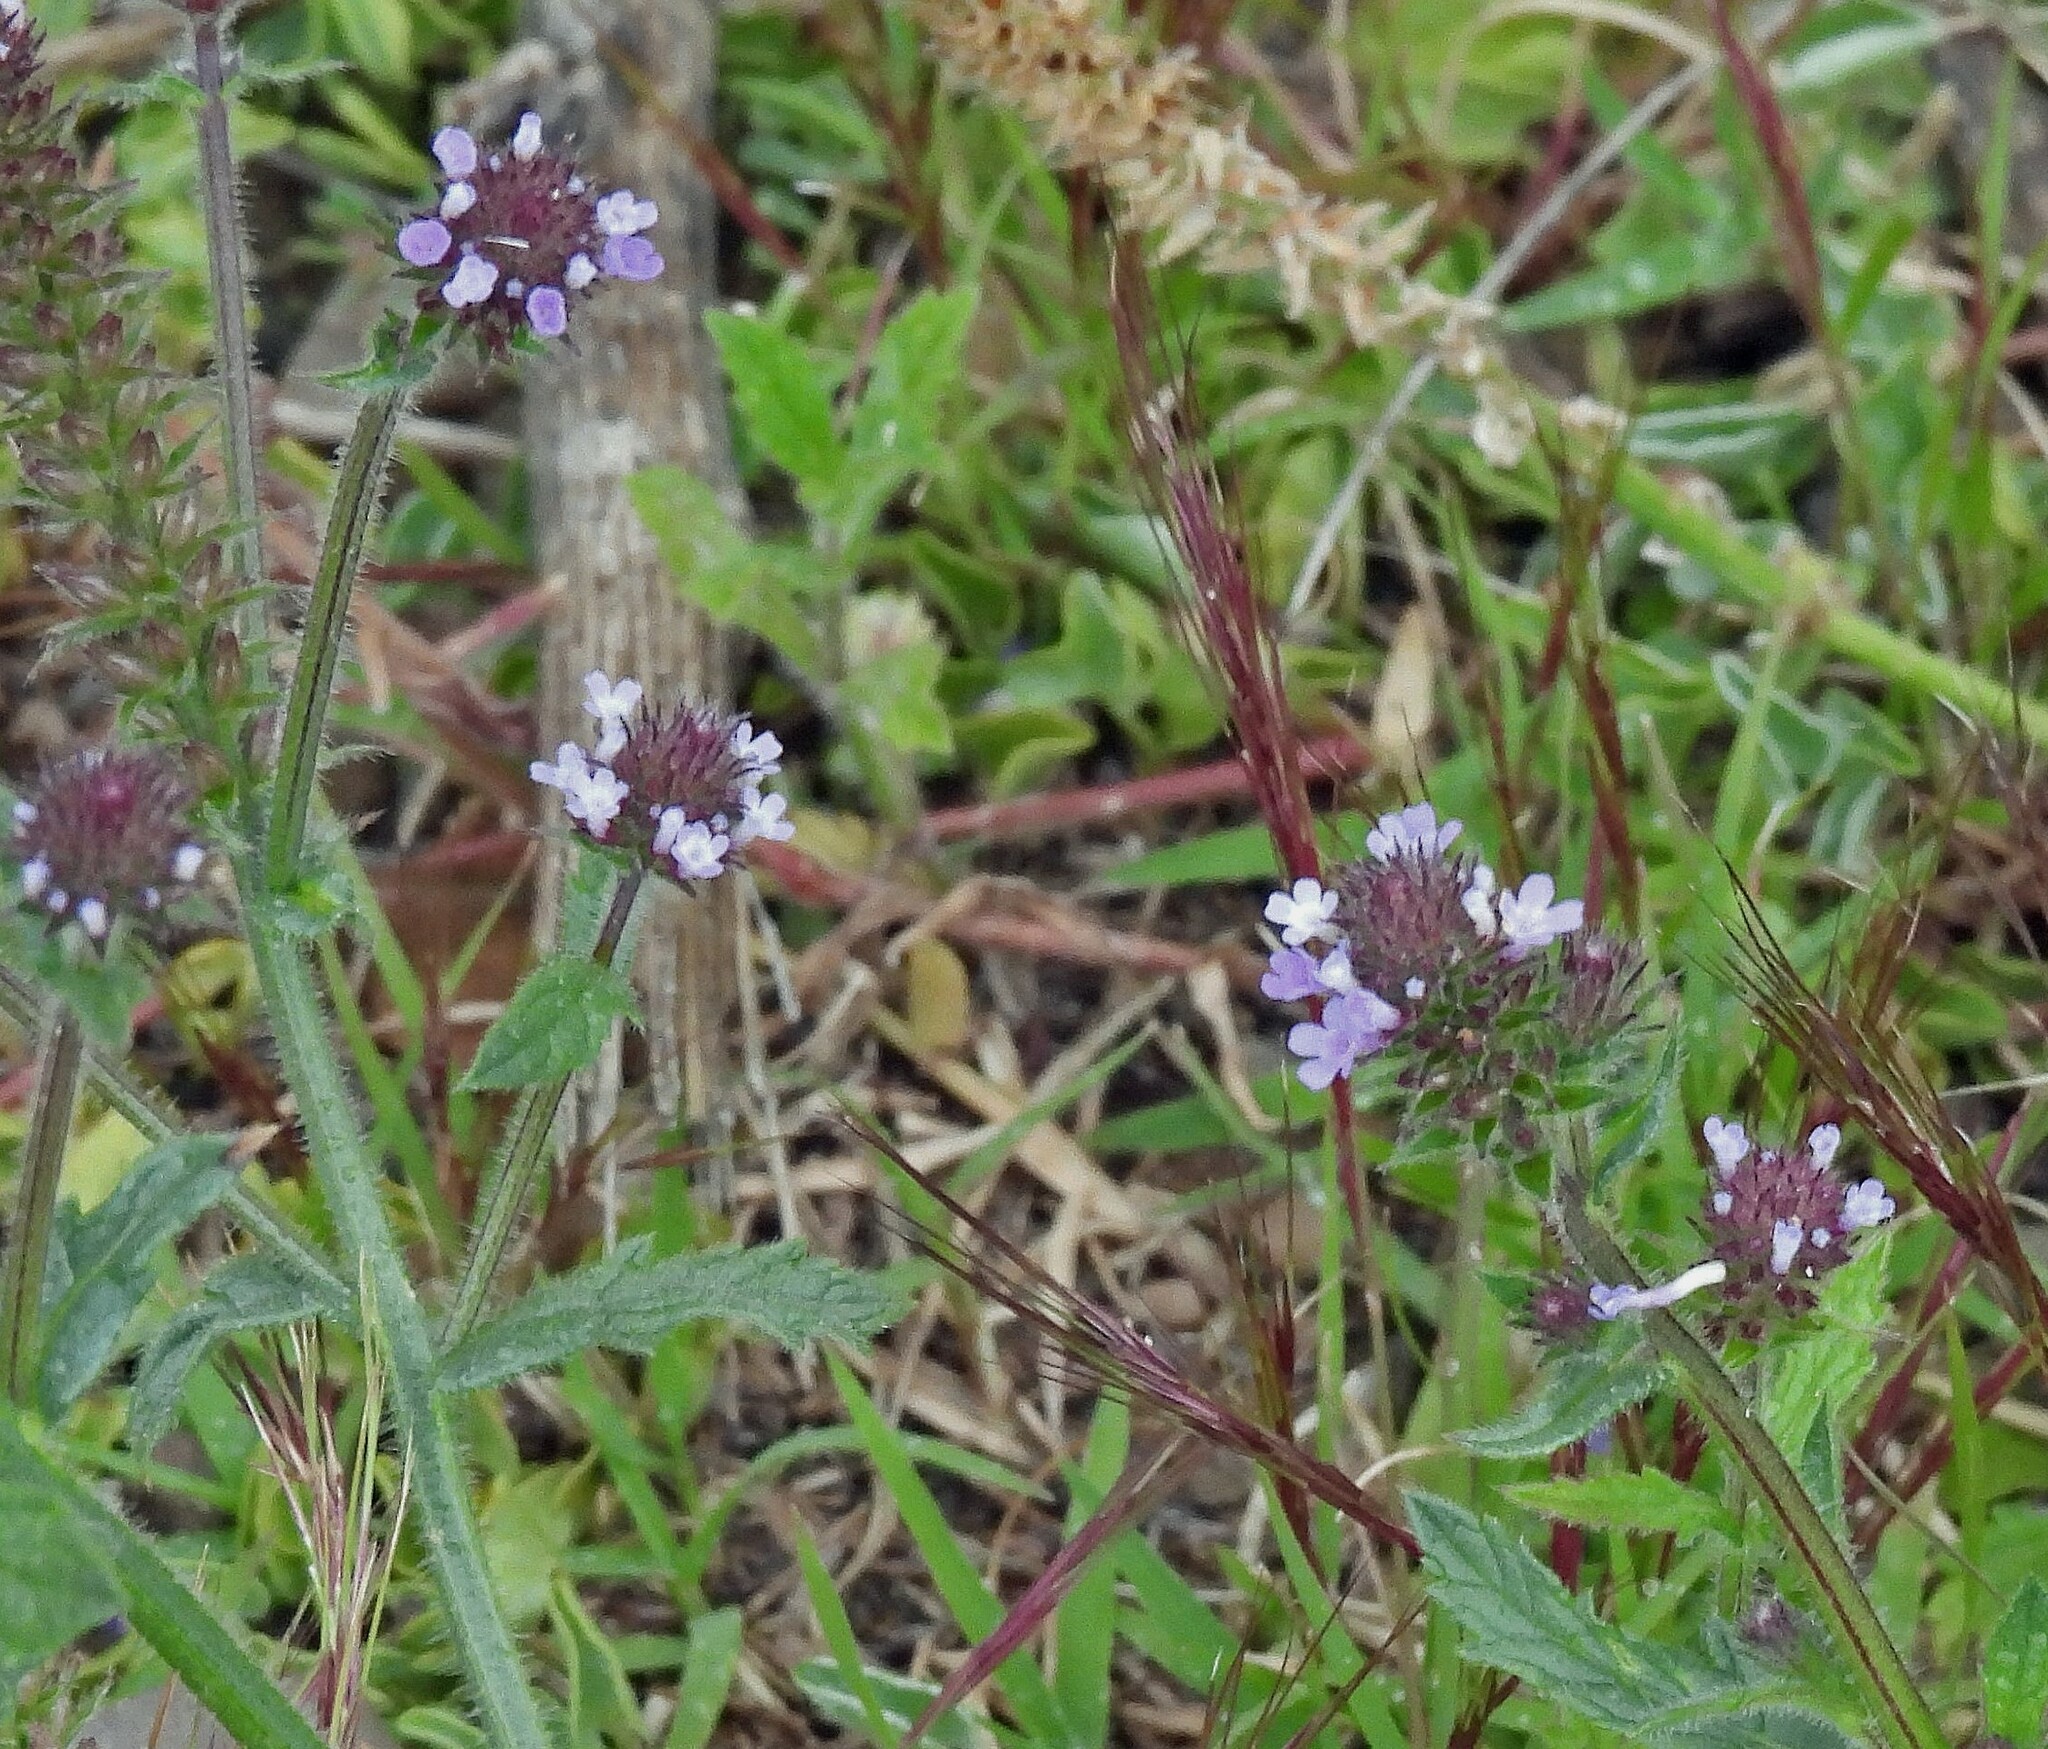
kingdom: Plantae
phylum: Tracheophyta
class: Magnoliopsida
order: Lamiales
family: Verbenaceae
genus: Verbena
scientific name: Verbena hispida
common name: Hairy vervain
